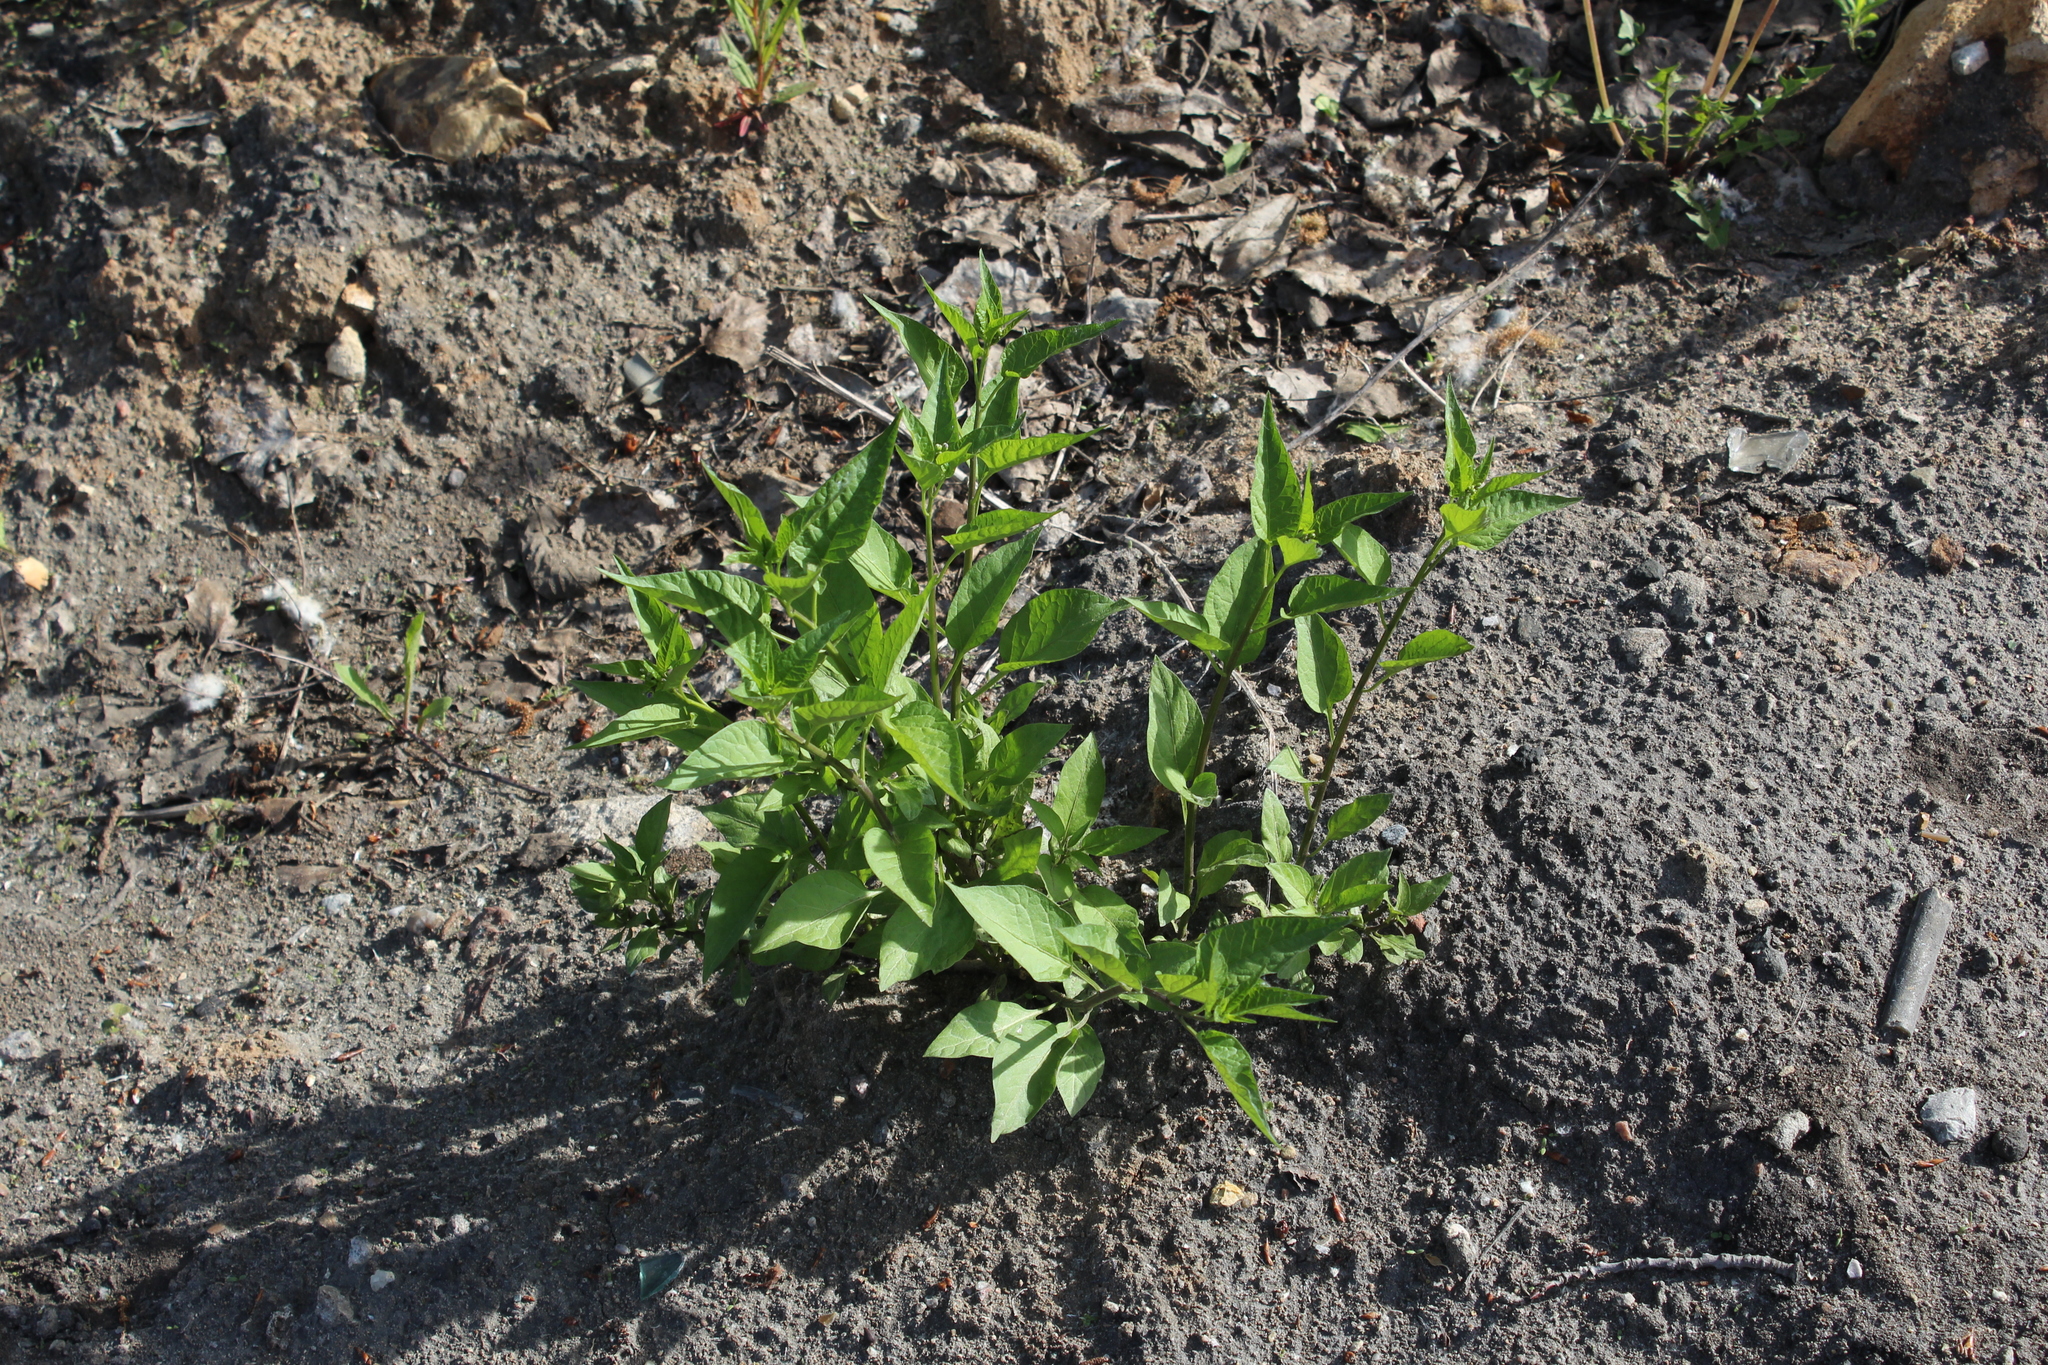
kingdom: Plantae
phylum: Tracheophyta
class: Magnoliopsida
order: Solanales
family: Solanaceae
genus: Solanum
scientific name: Solanum dulcamara
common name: Climbing nightshade
